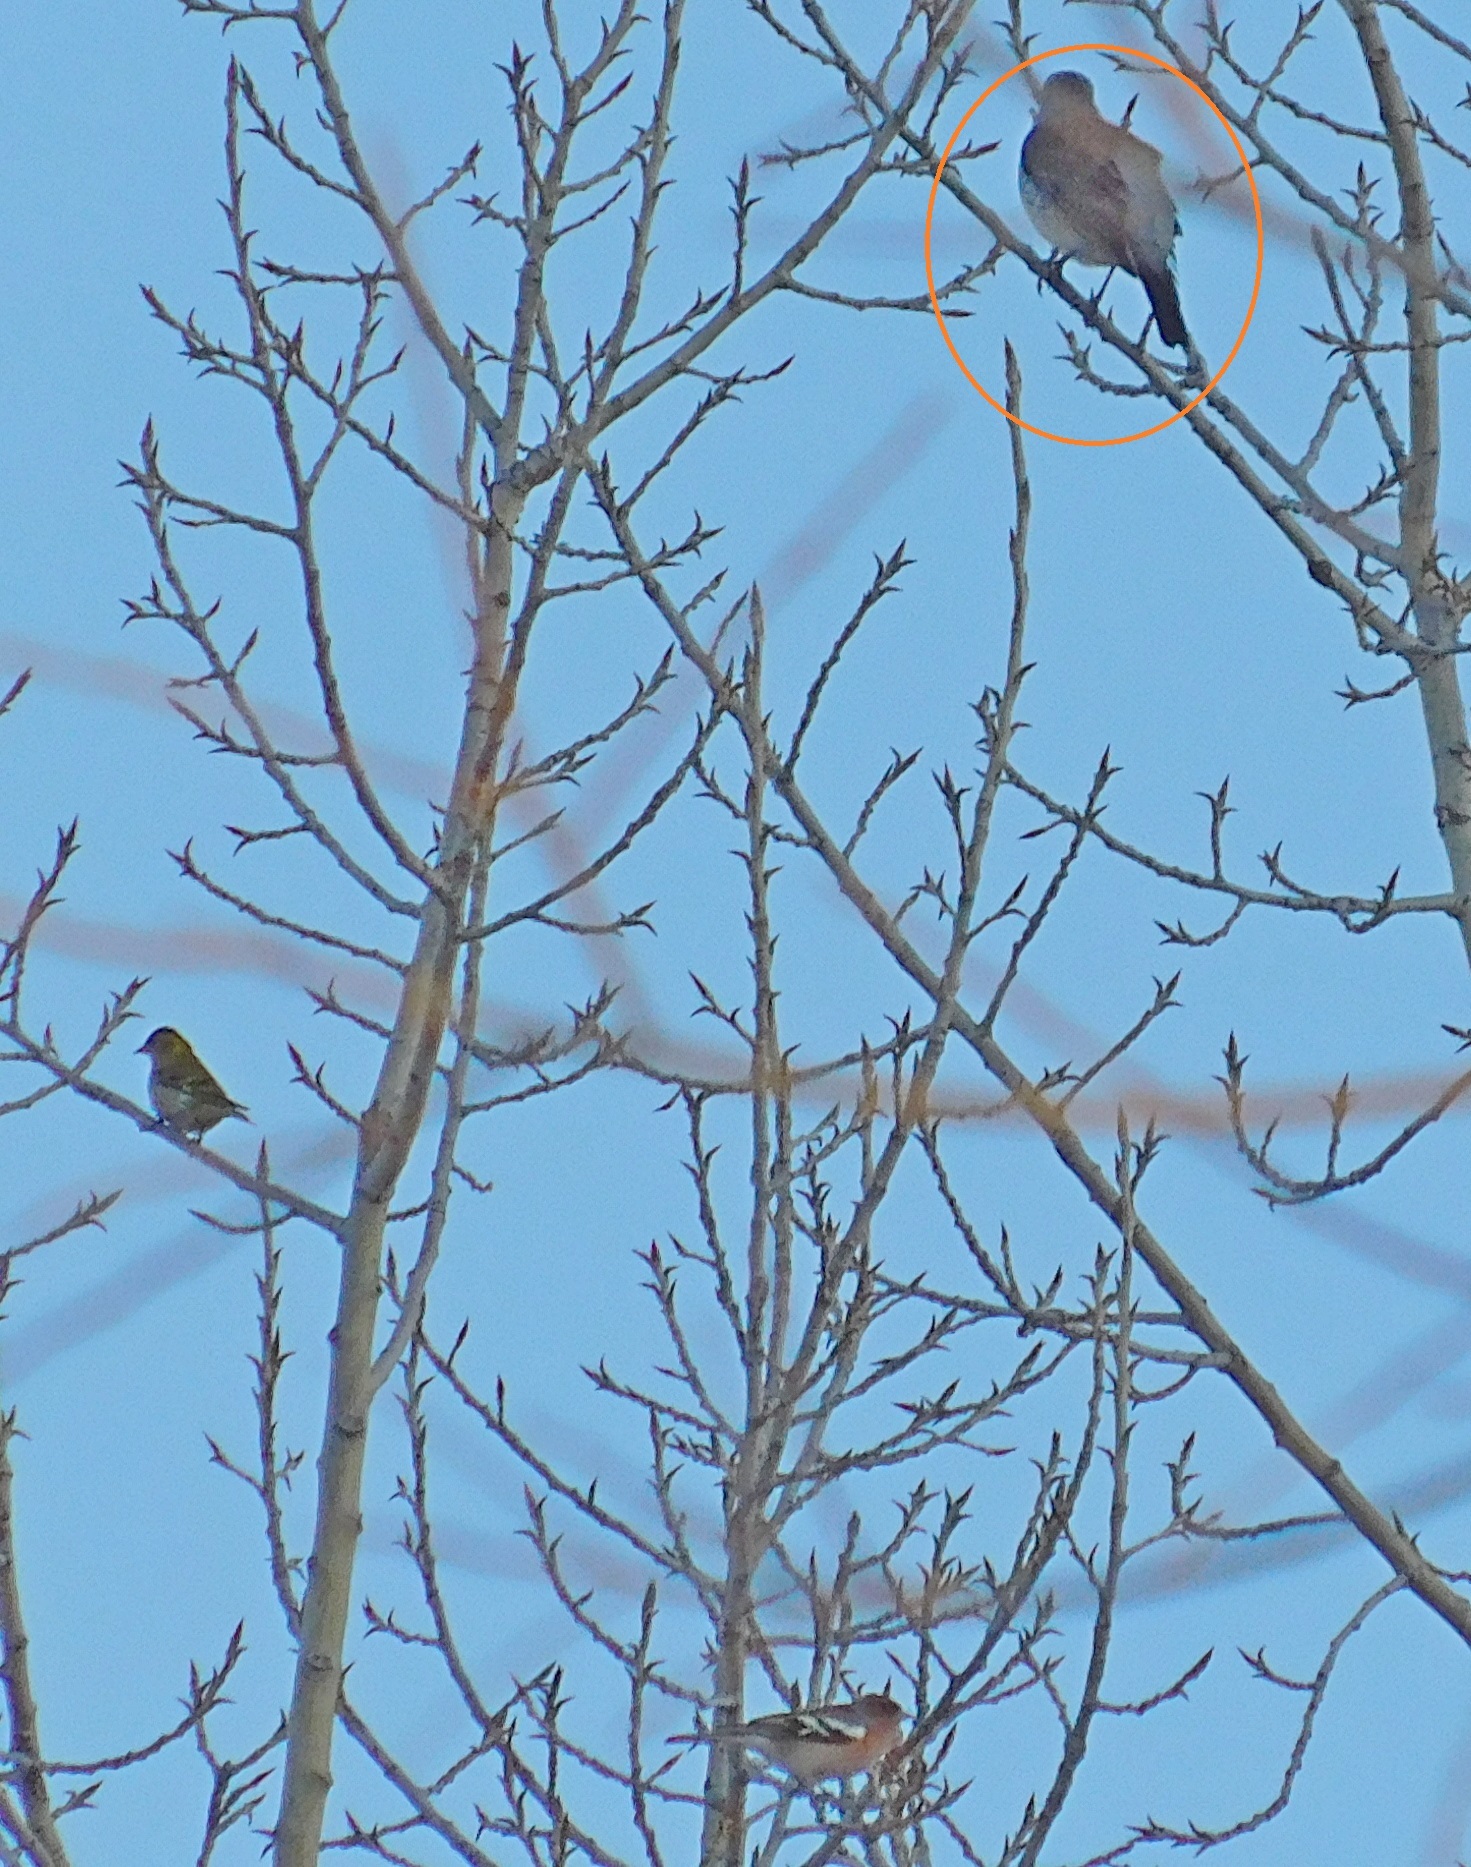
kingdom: Animalia
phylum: Chordata
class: Aves
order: Passeriformes
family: Turdidae
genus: Turdus
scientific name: Turdus pilaris
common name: Fieldfare
